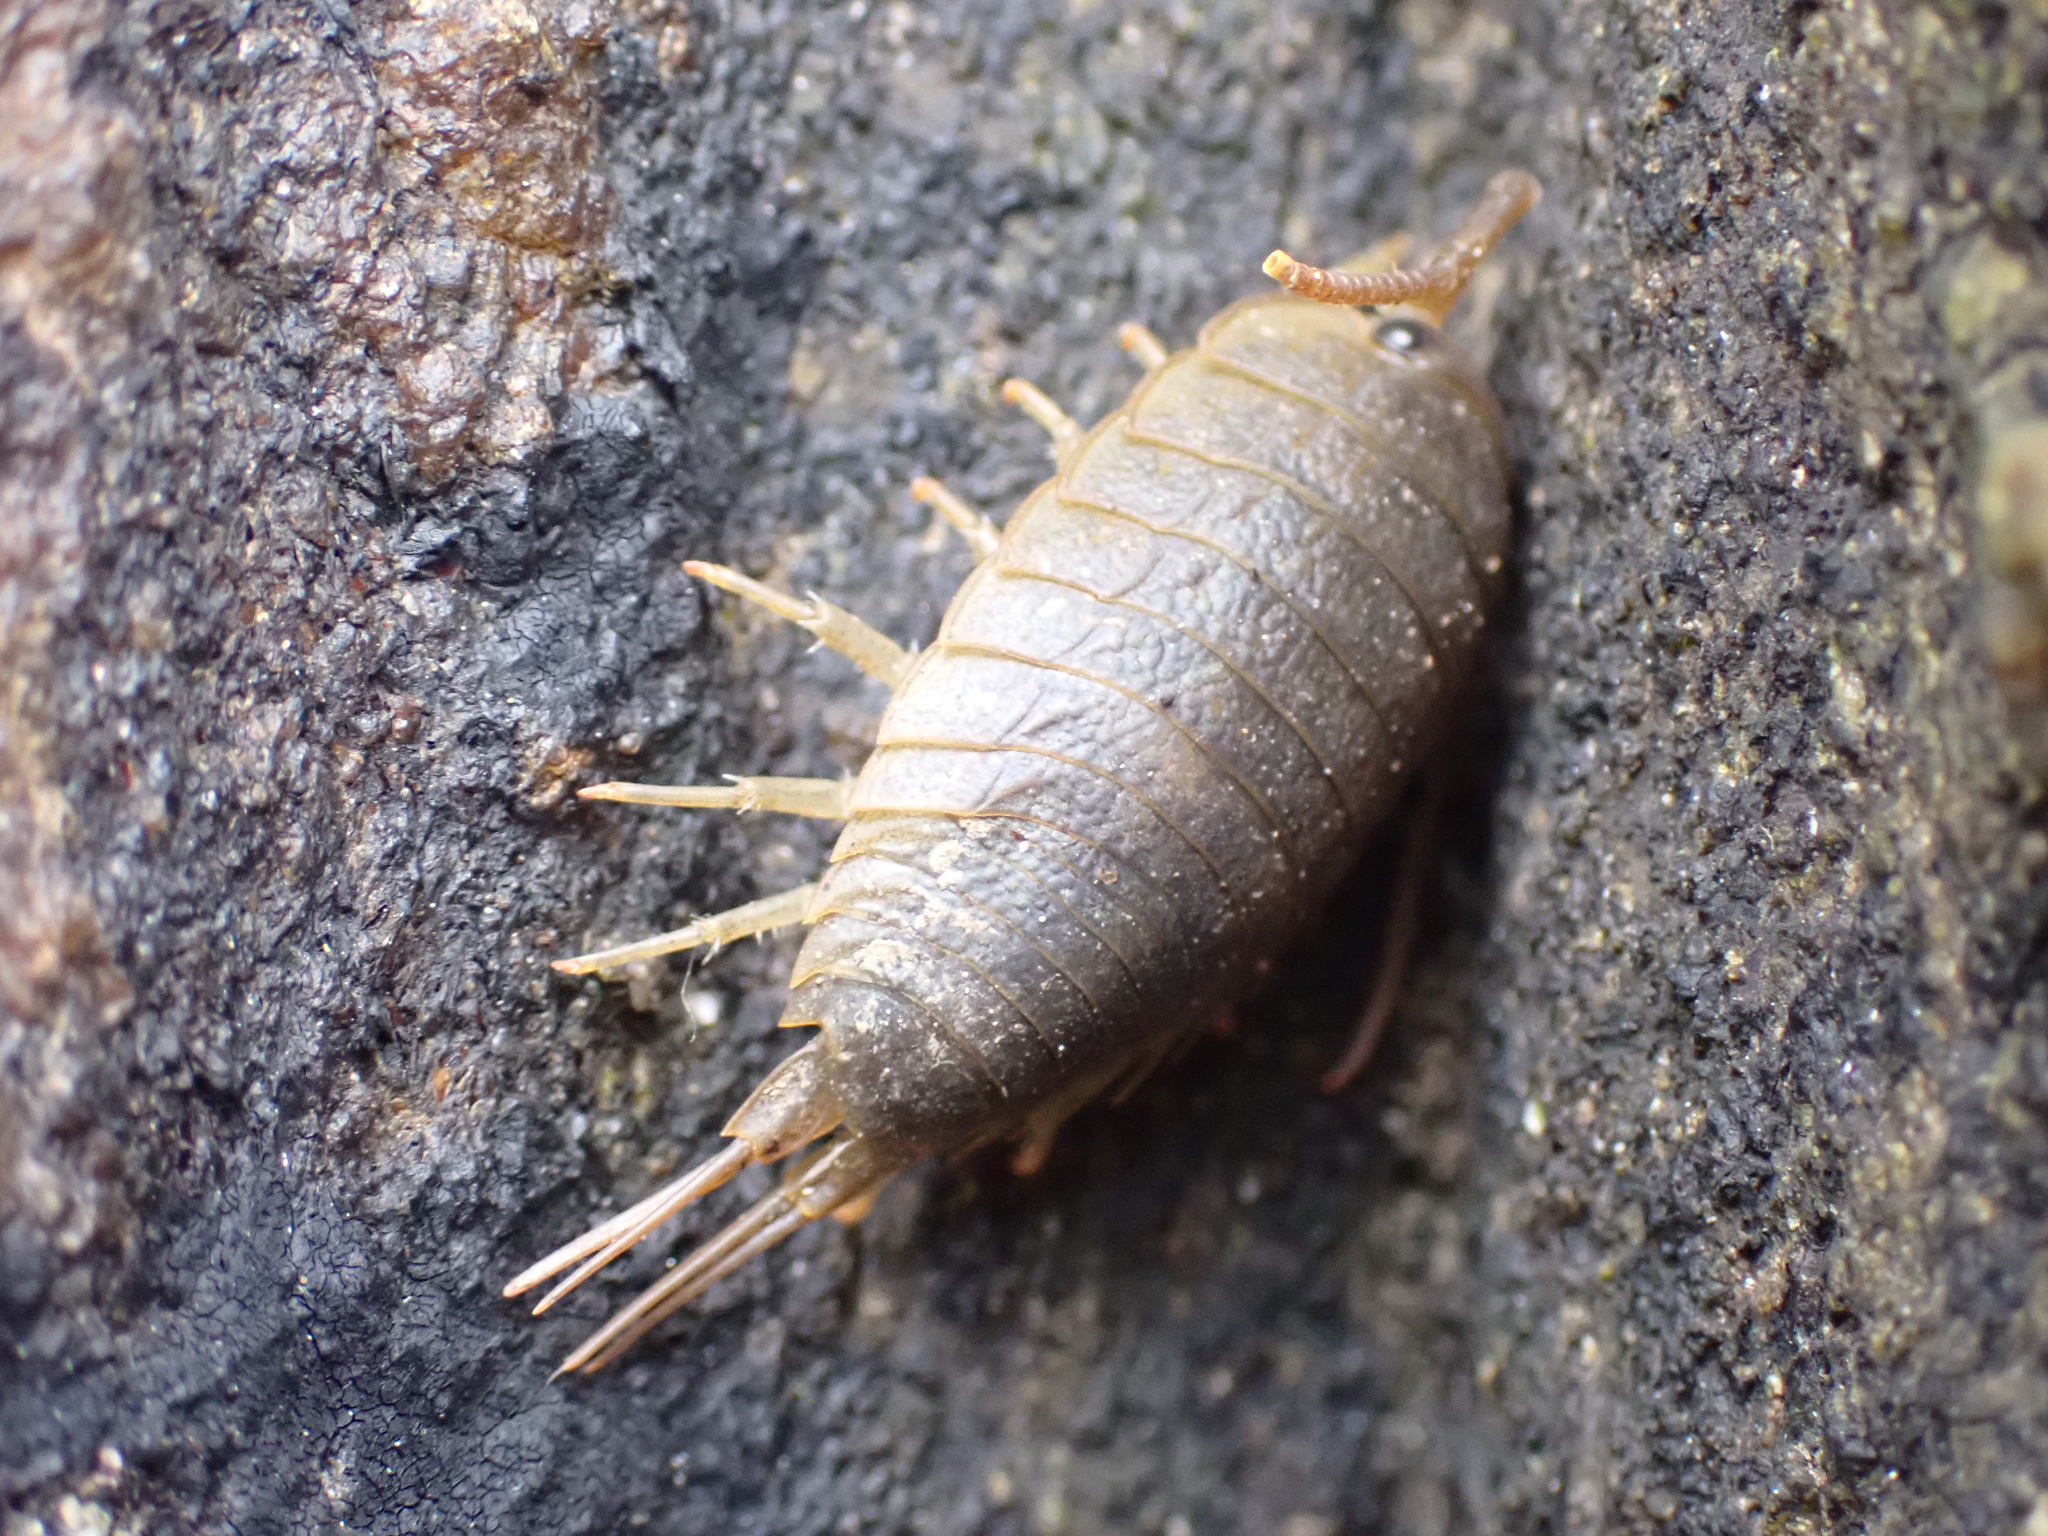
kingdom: Animalia
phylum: Arthropoda
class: Malacostraca
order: Isopoda
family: Ligiidae
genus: Ligia
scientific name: Ligia oceanica
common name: Sea slater
